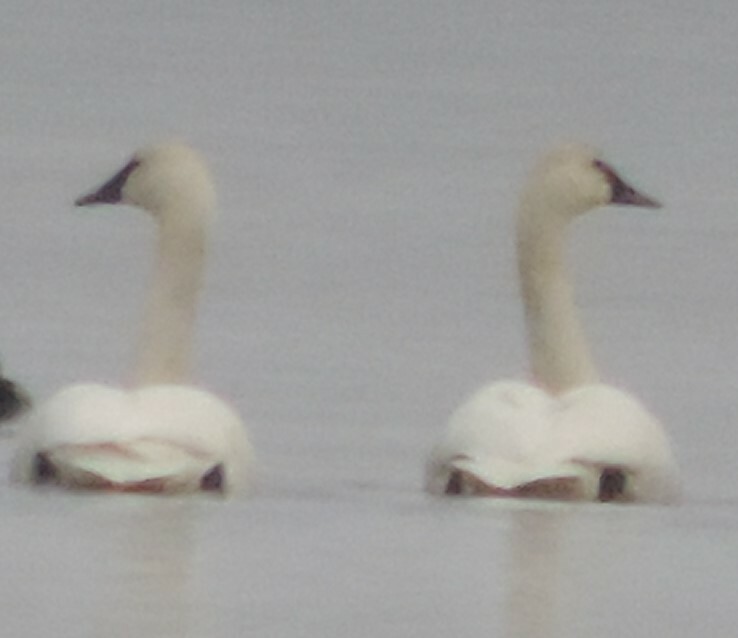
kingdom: Animalia
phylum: Chordata
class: Aves
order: Anseriformes
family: Anatidae
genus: Cygnus
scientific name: Cygnus buccinator
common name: Trumpeter swan
